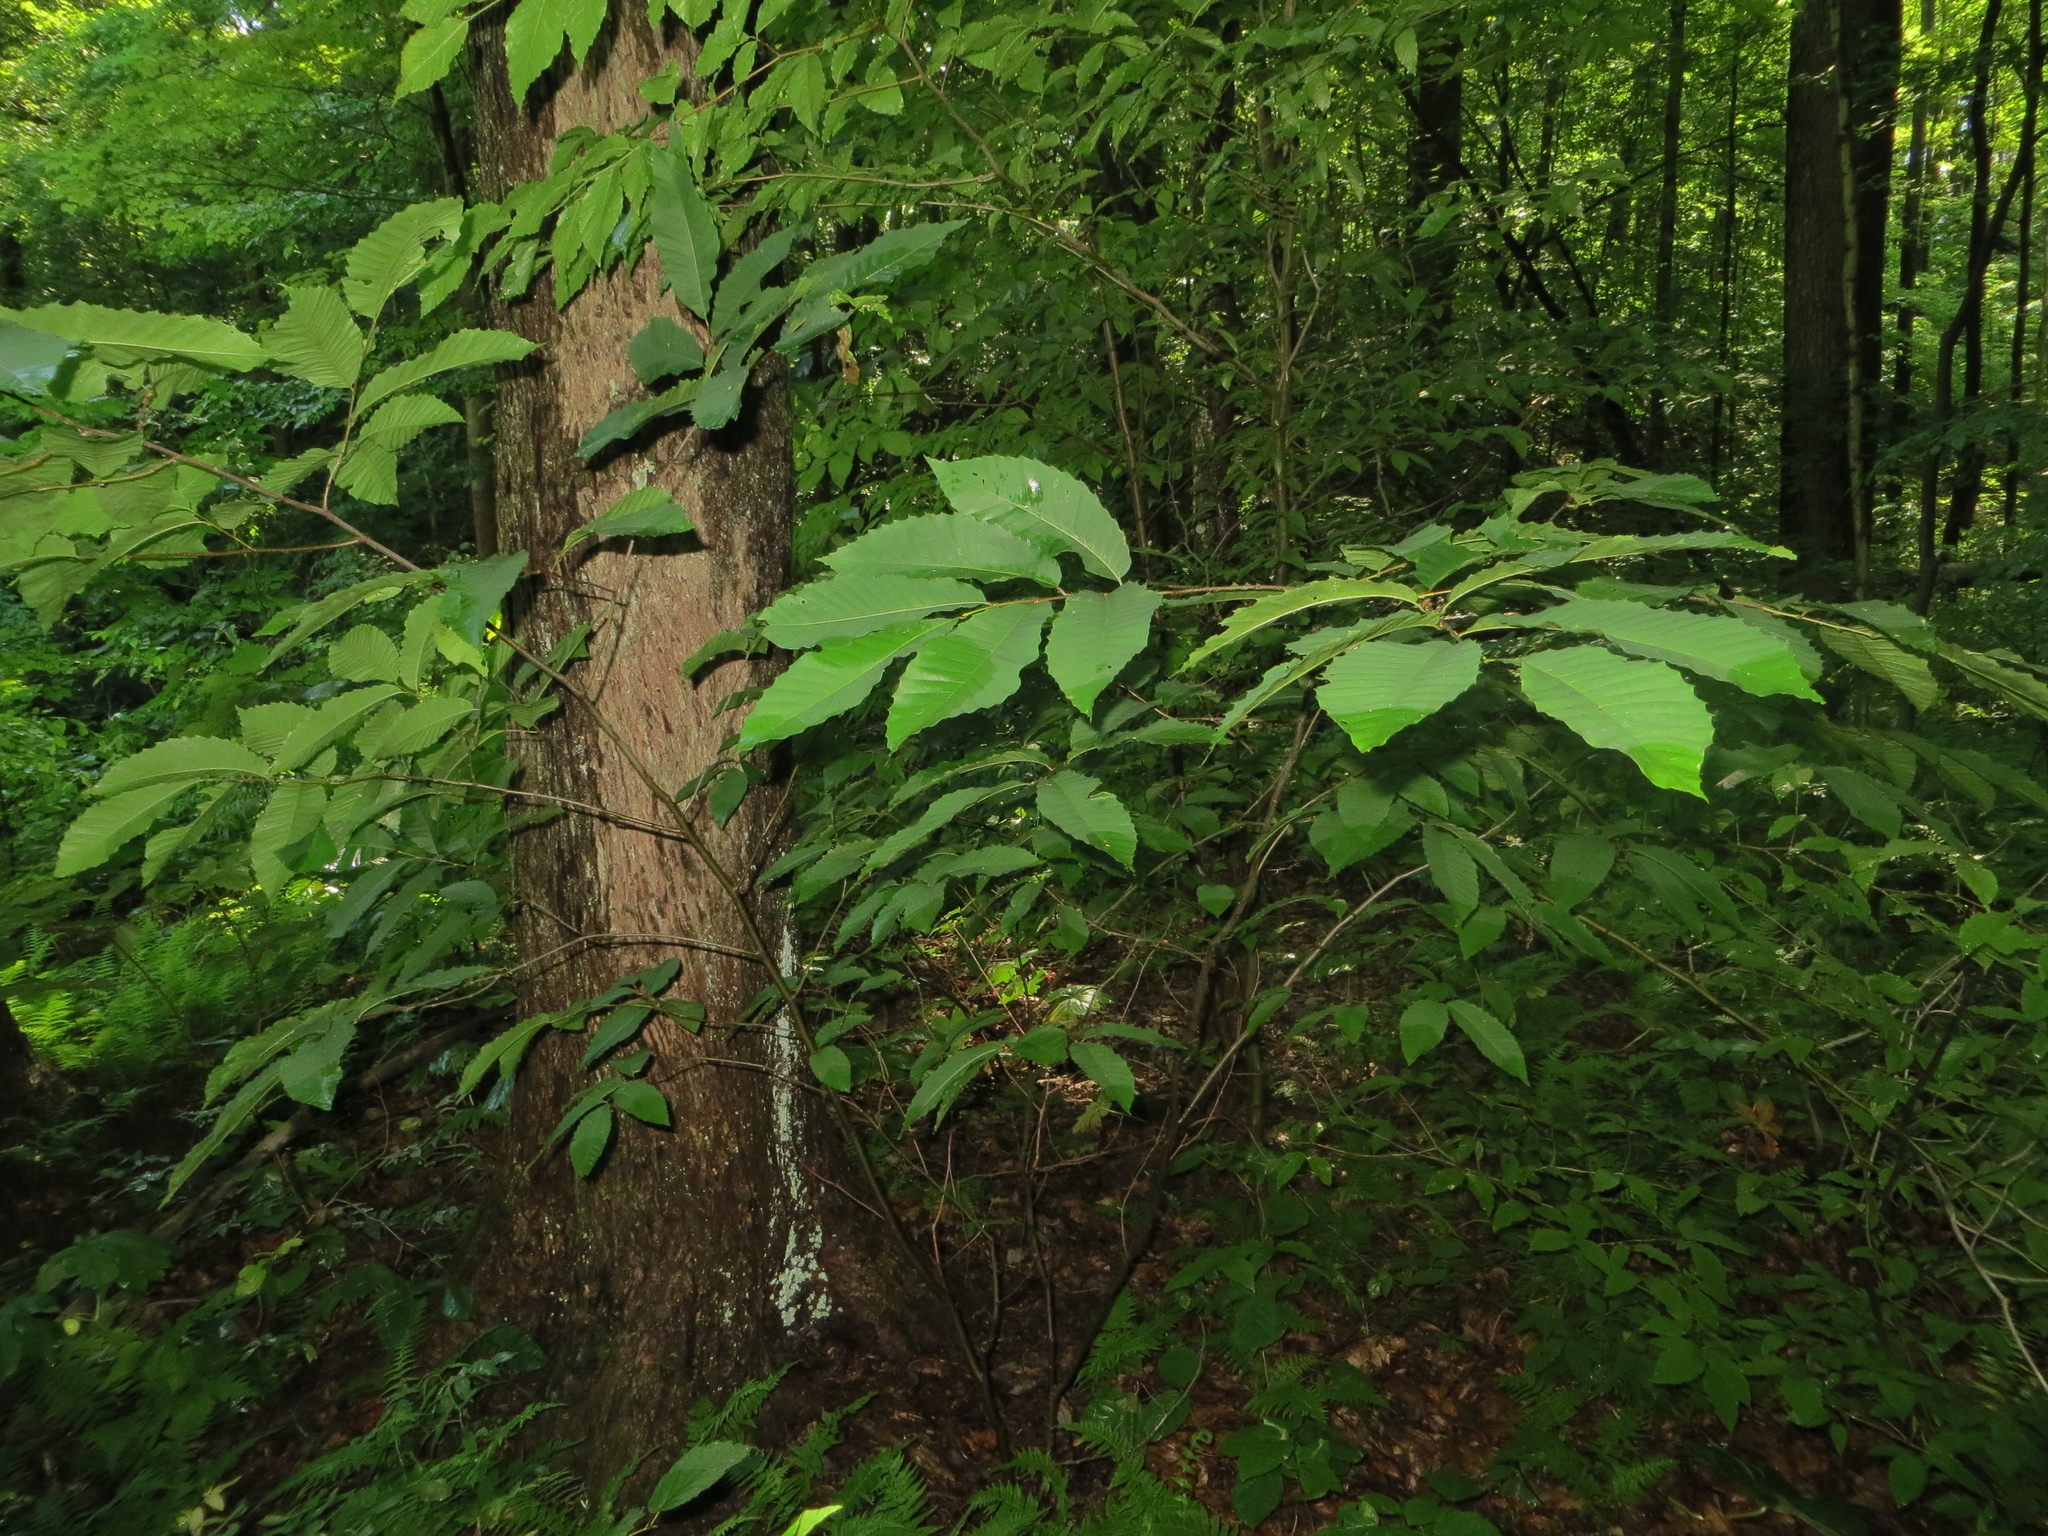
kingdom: Plantae
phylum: Tracheophyta
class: Magnoliopsida
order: Fagales
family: Fagaceae
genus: Castanea
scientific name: Castanea dentata
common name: American chestnut
